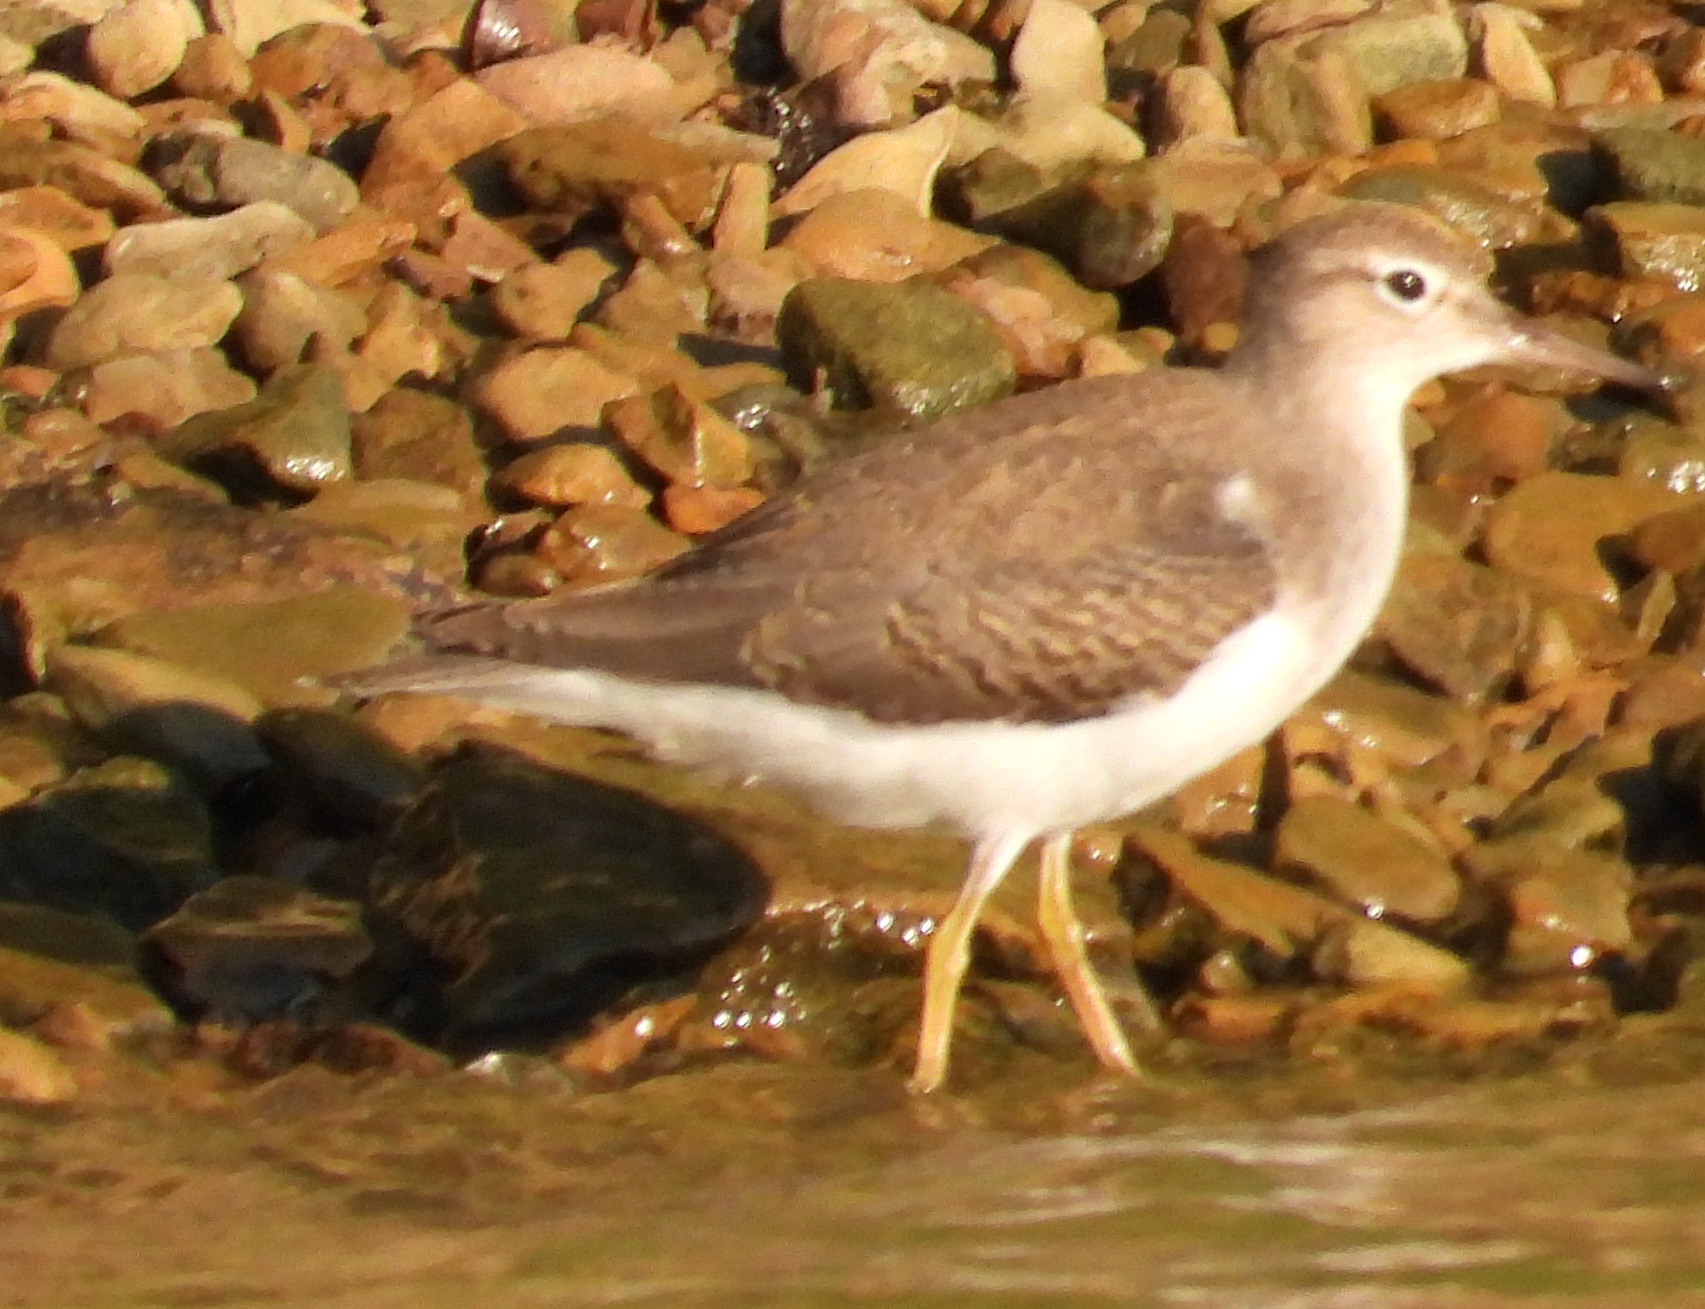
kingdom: Animalia
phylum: Chordata
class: Aves
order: Charadriiformes
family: Scolopacidae
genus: Actitis
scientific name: Actitis macularius
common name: Spotted sandpiper
